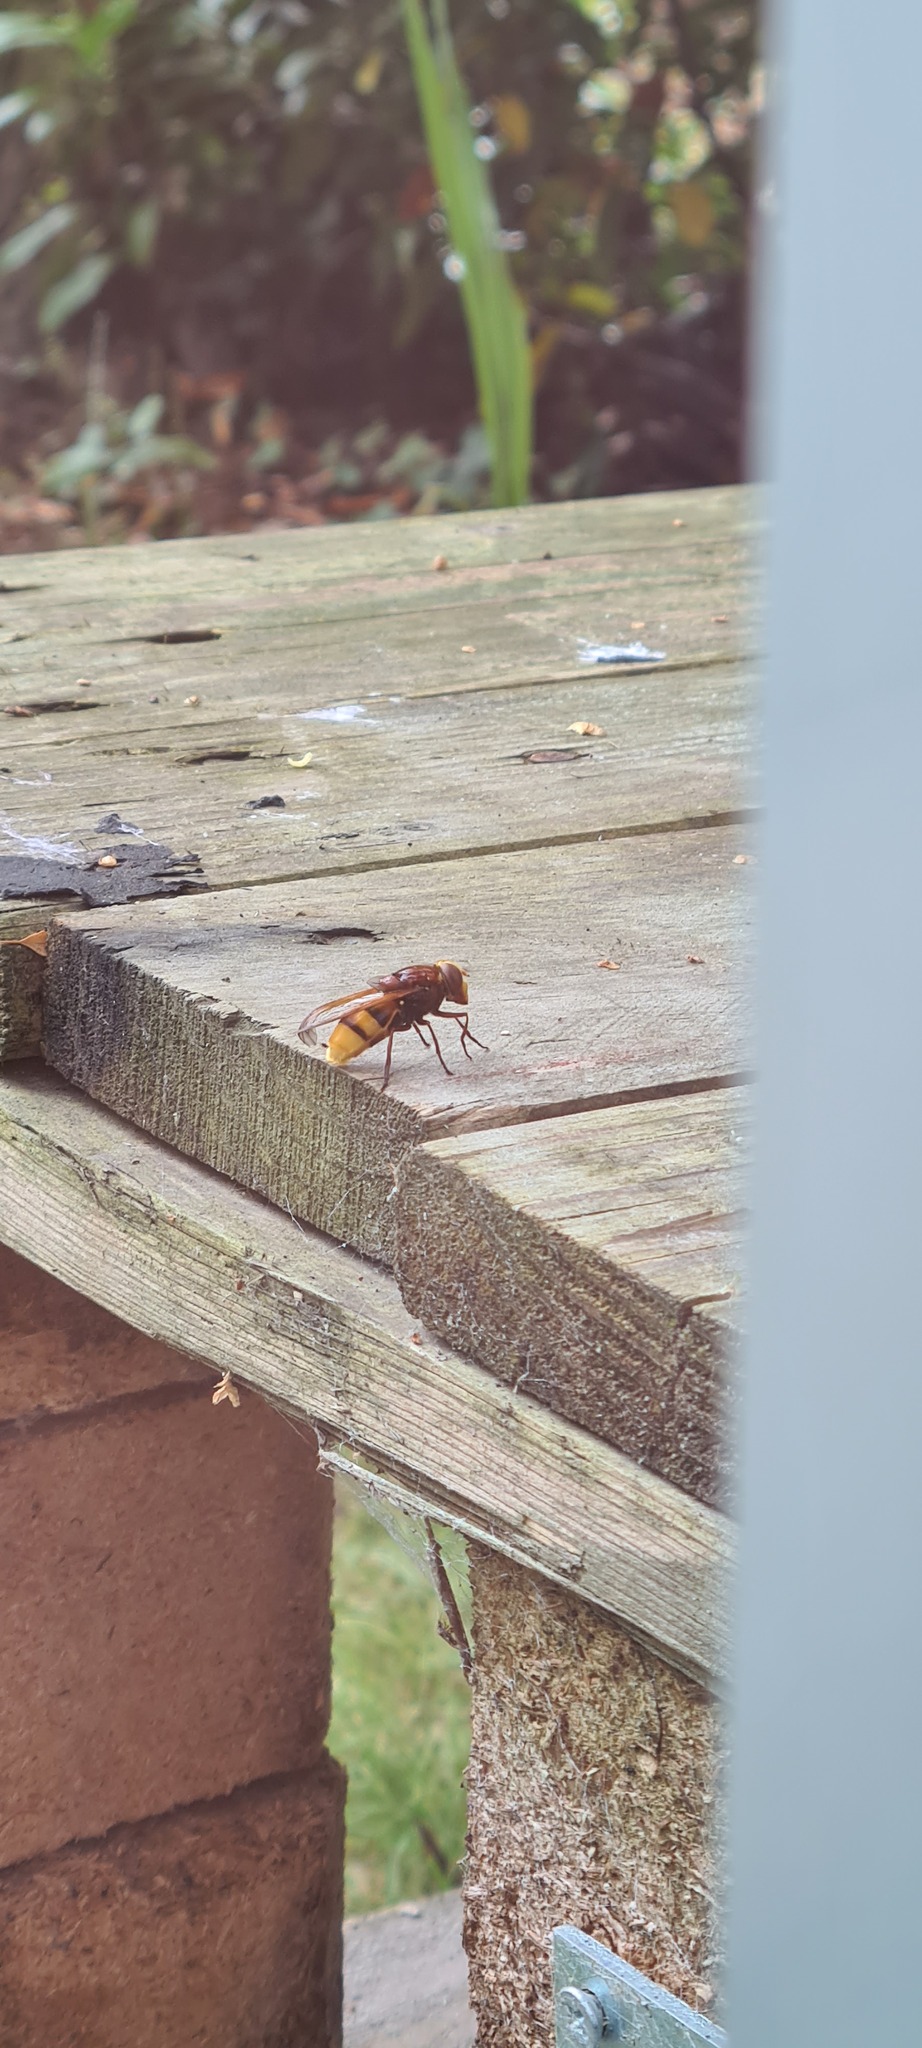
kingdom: Animalia
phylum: Arthropoda
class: Insecta
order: Diptera
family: Syrphidae
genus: Volucella
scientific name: Volucella zonaria
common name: Hornet hoverfly
